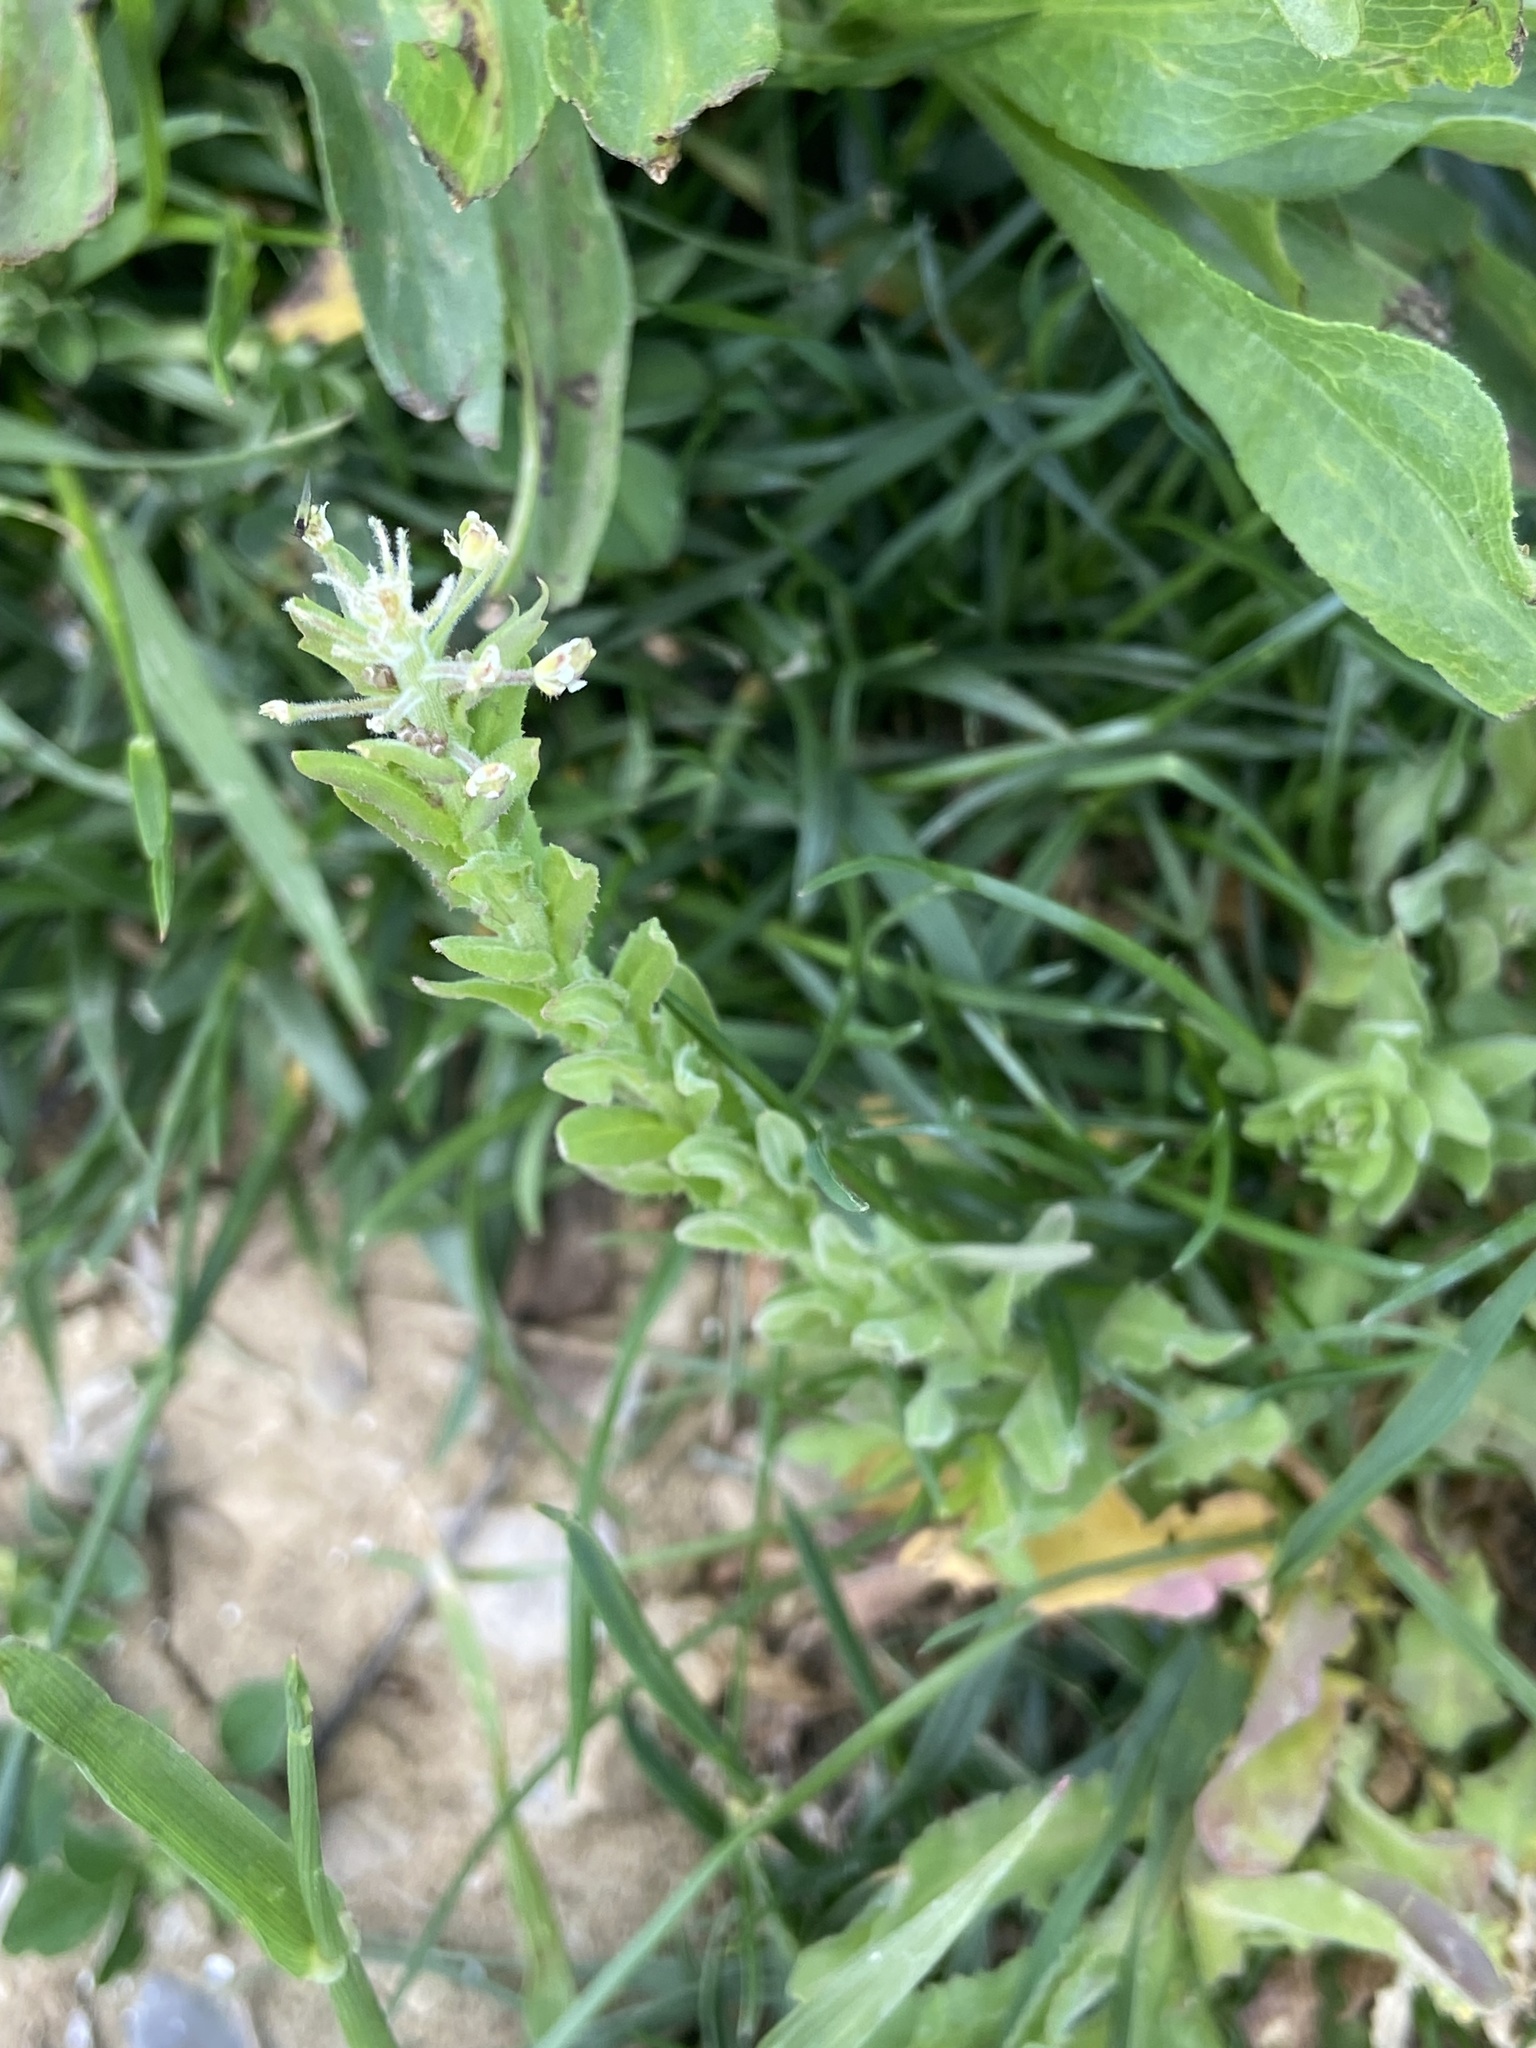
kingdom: Plantae
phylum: Tracheophyta
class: Magnoliopsida
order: Brassicales
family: Brassicaceae
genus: Lepidium
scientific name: Lepidium campestre
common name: Field pepperwort
